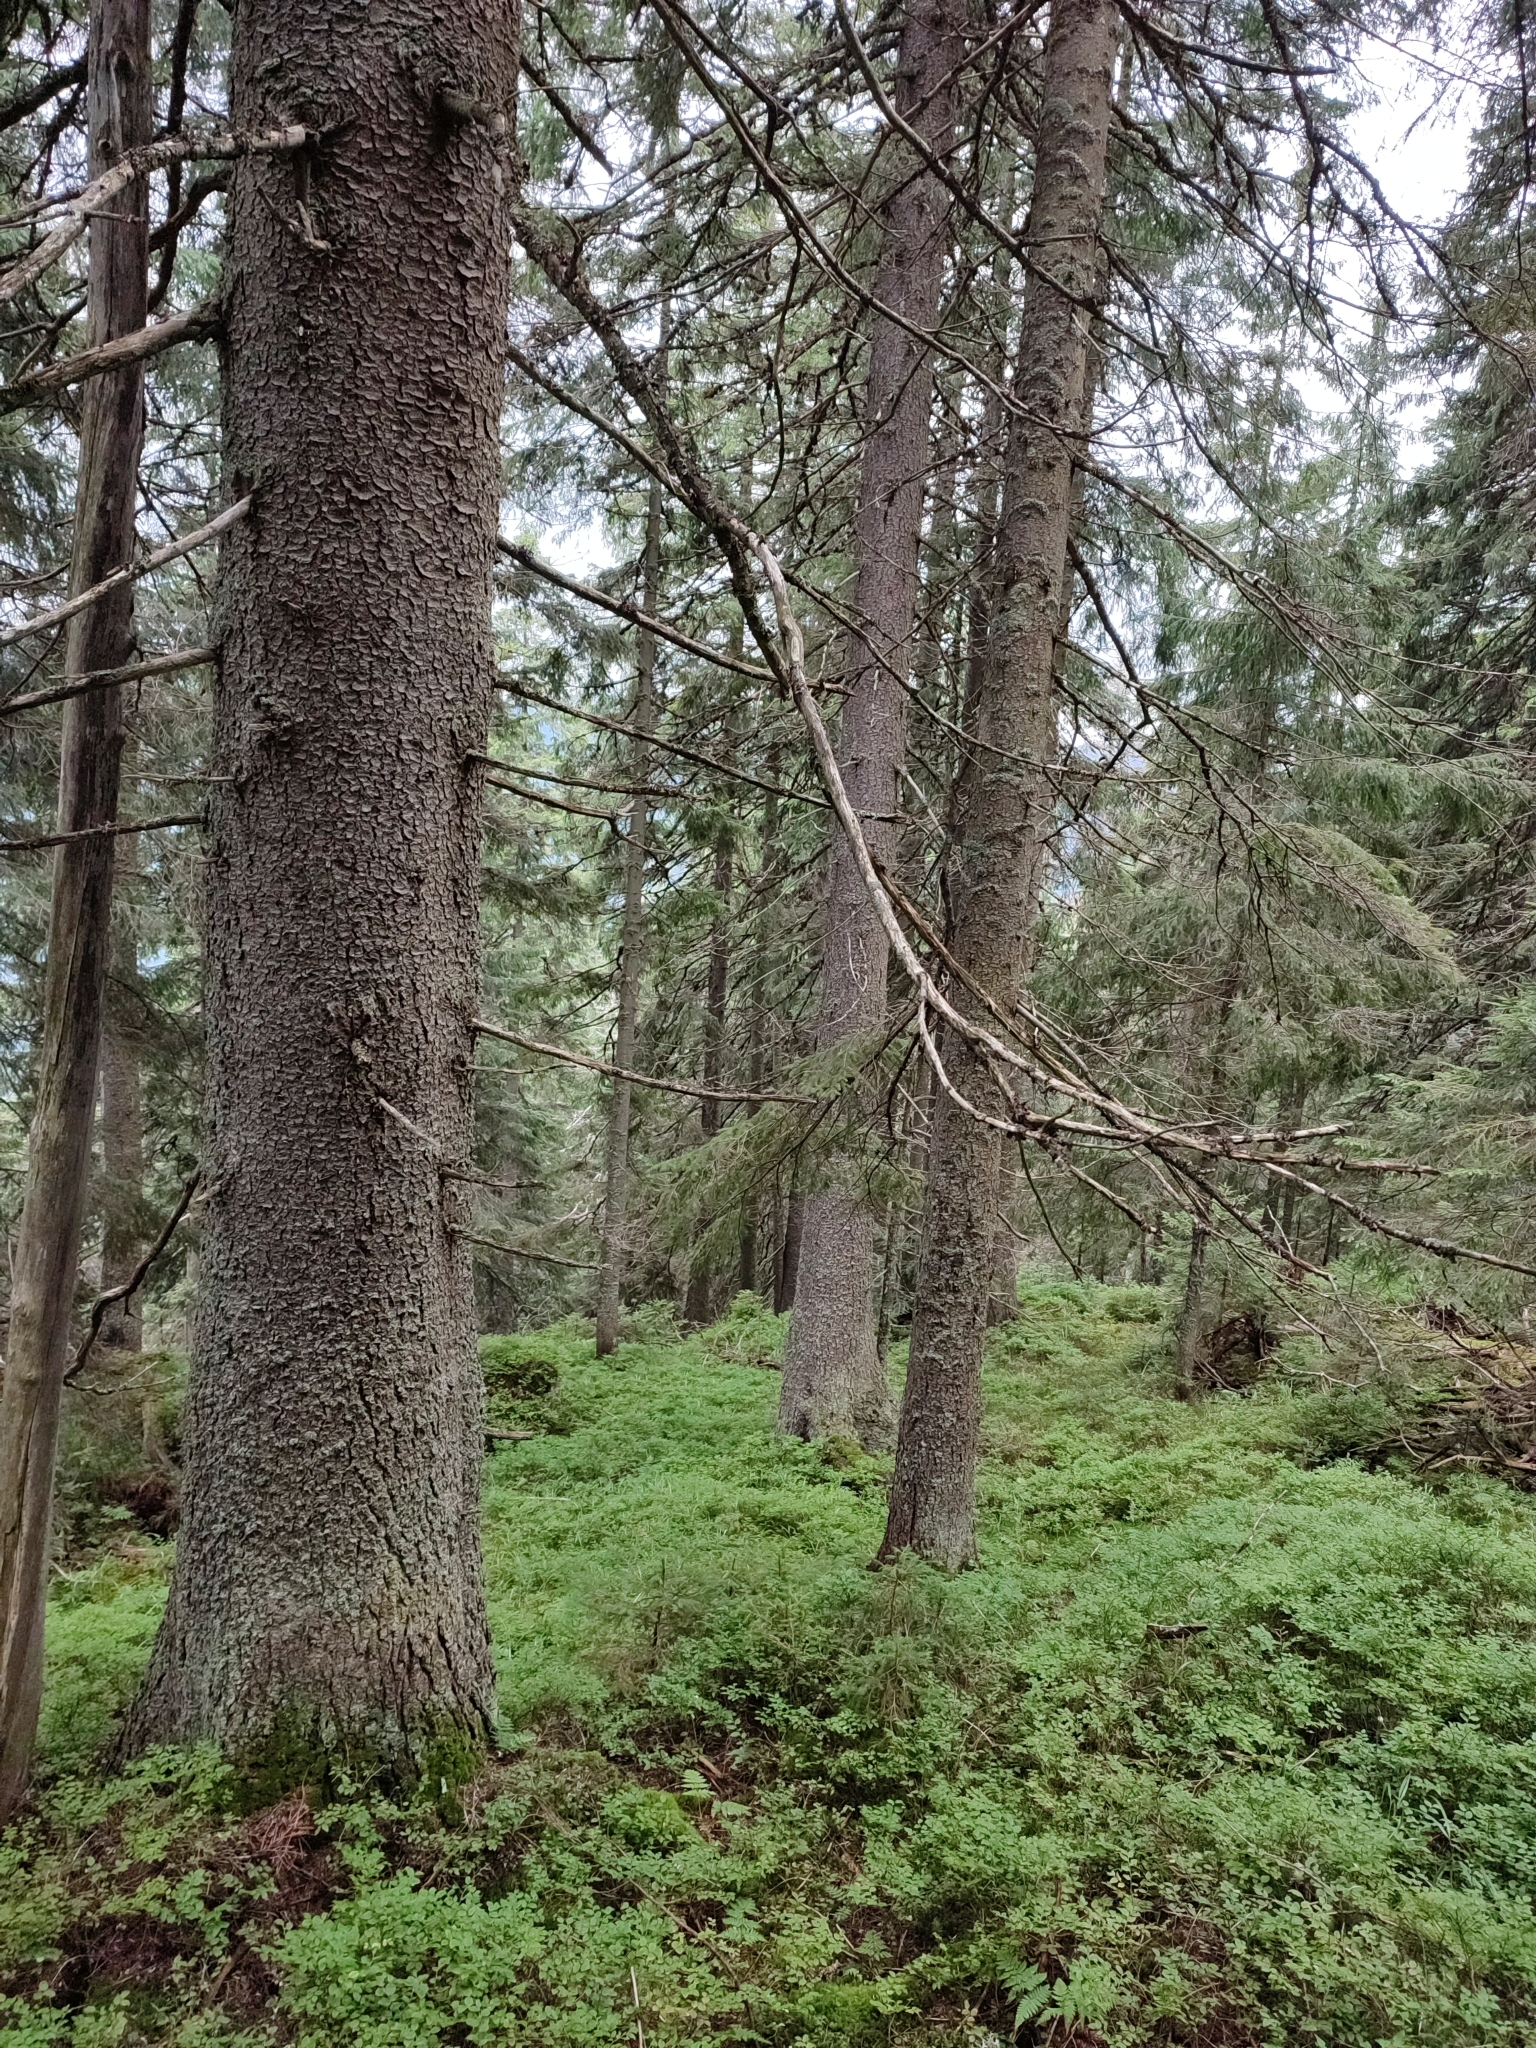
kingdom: Plantae
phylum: Tracheophyta
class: Pinopsida
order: Pinales
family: Pinaceae
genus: Picea
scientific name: Picea abies
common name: Norway spruce
